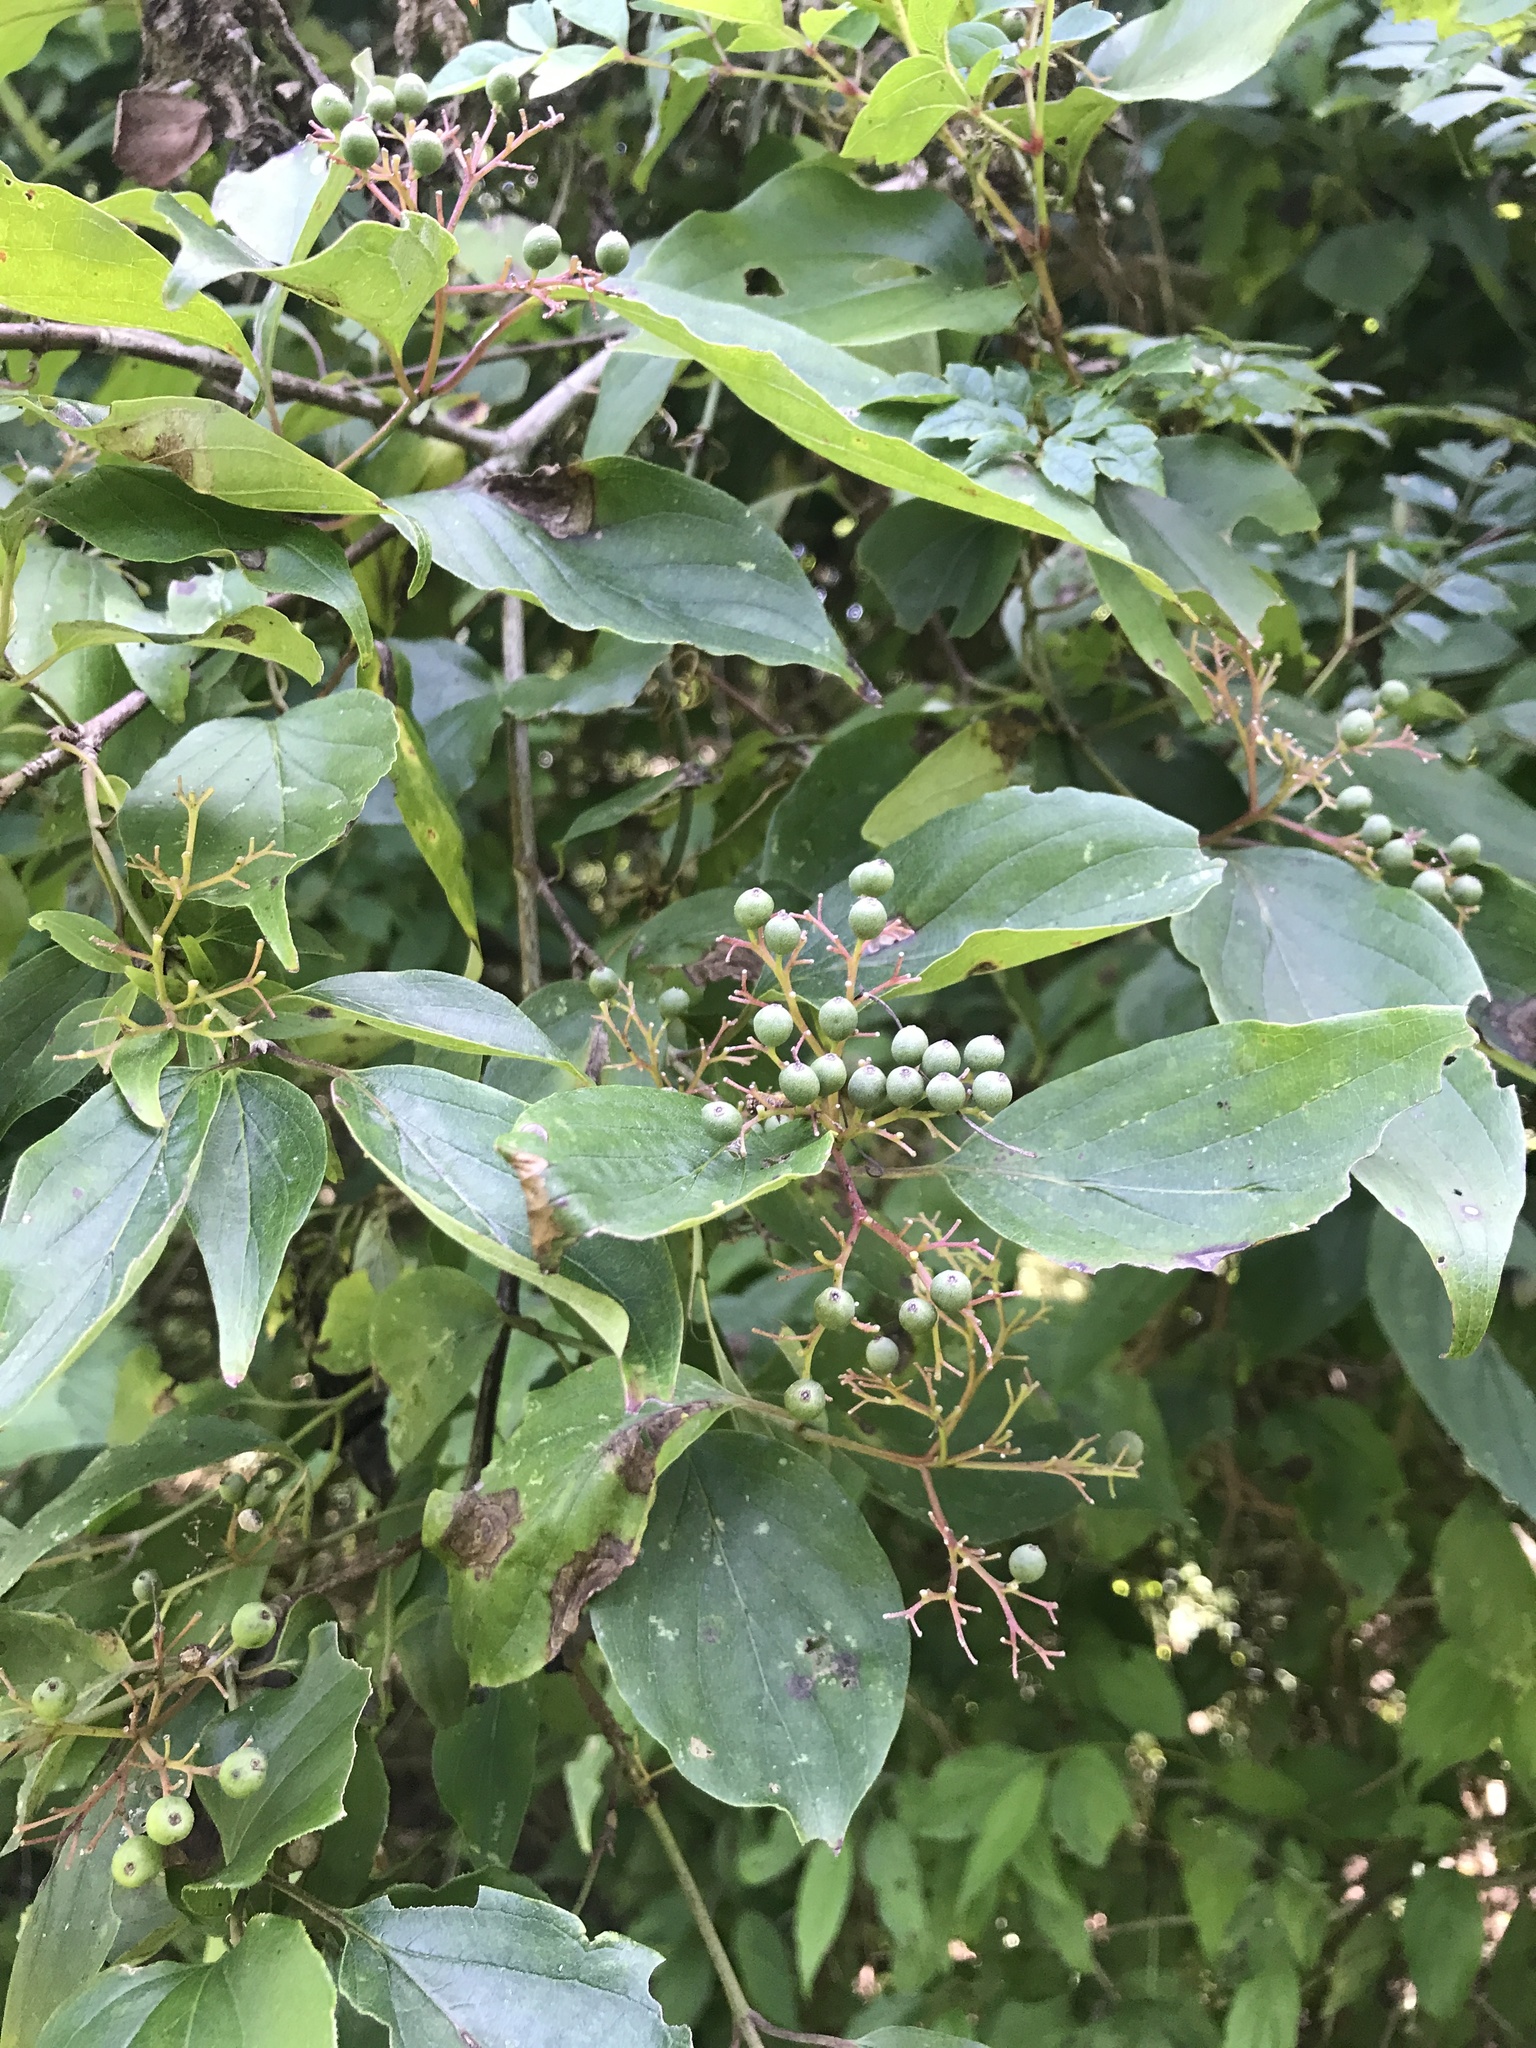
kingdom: Plantae
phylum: Tracheophyta
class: Magnoliopsida
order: Cornales
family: Cornaceae
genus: Cornus
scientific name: Cornus drummondii
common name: Rough-leaf dogwood
